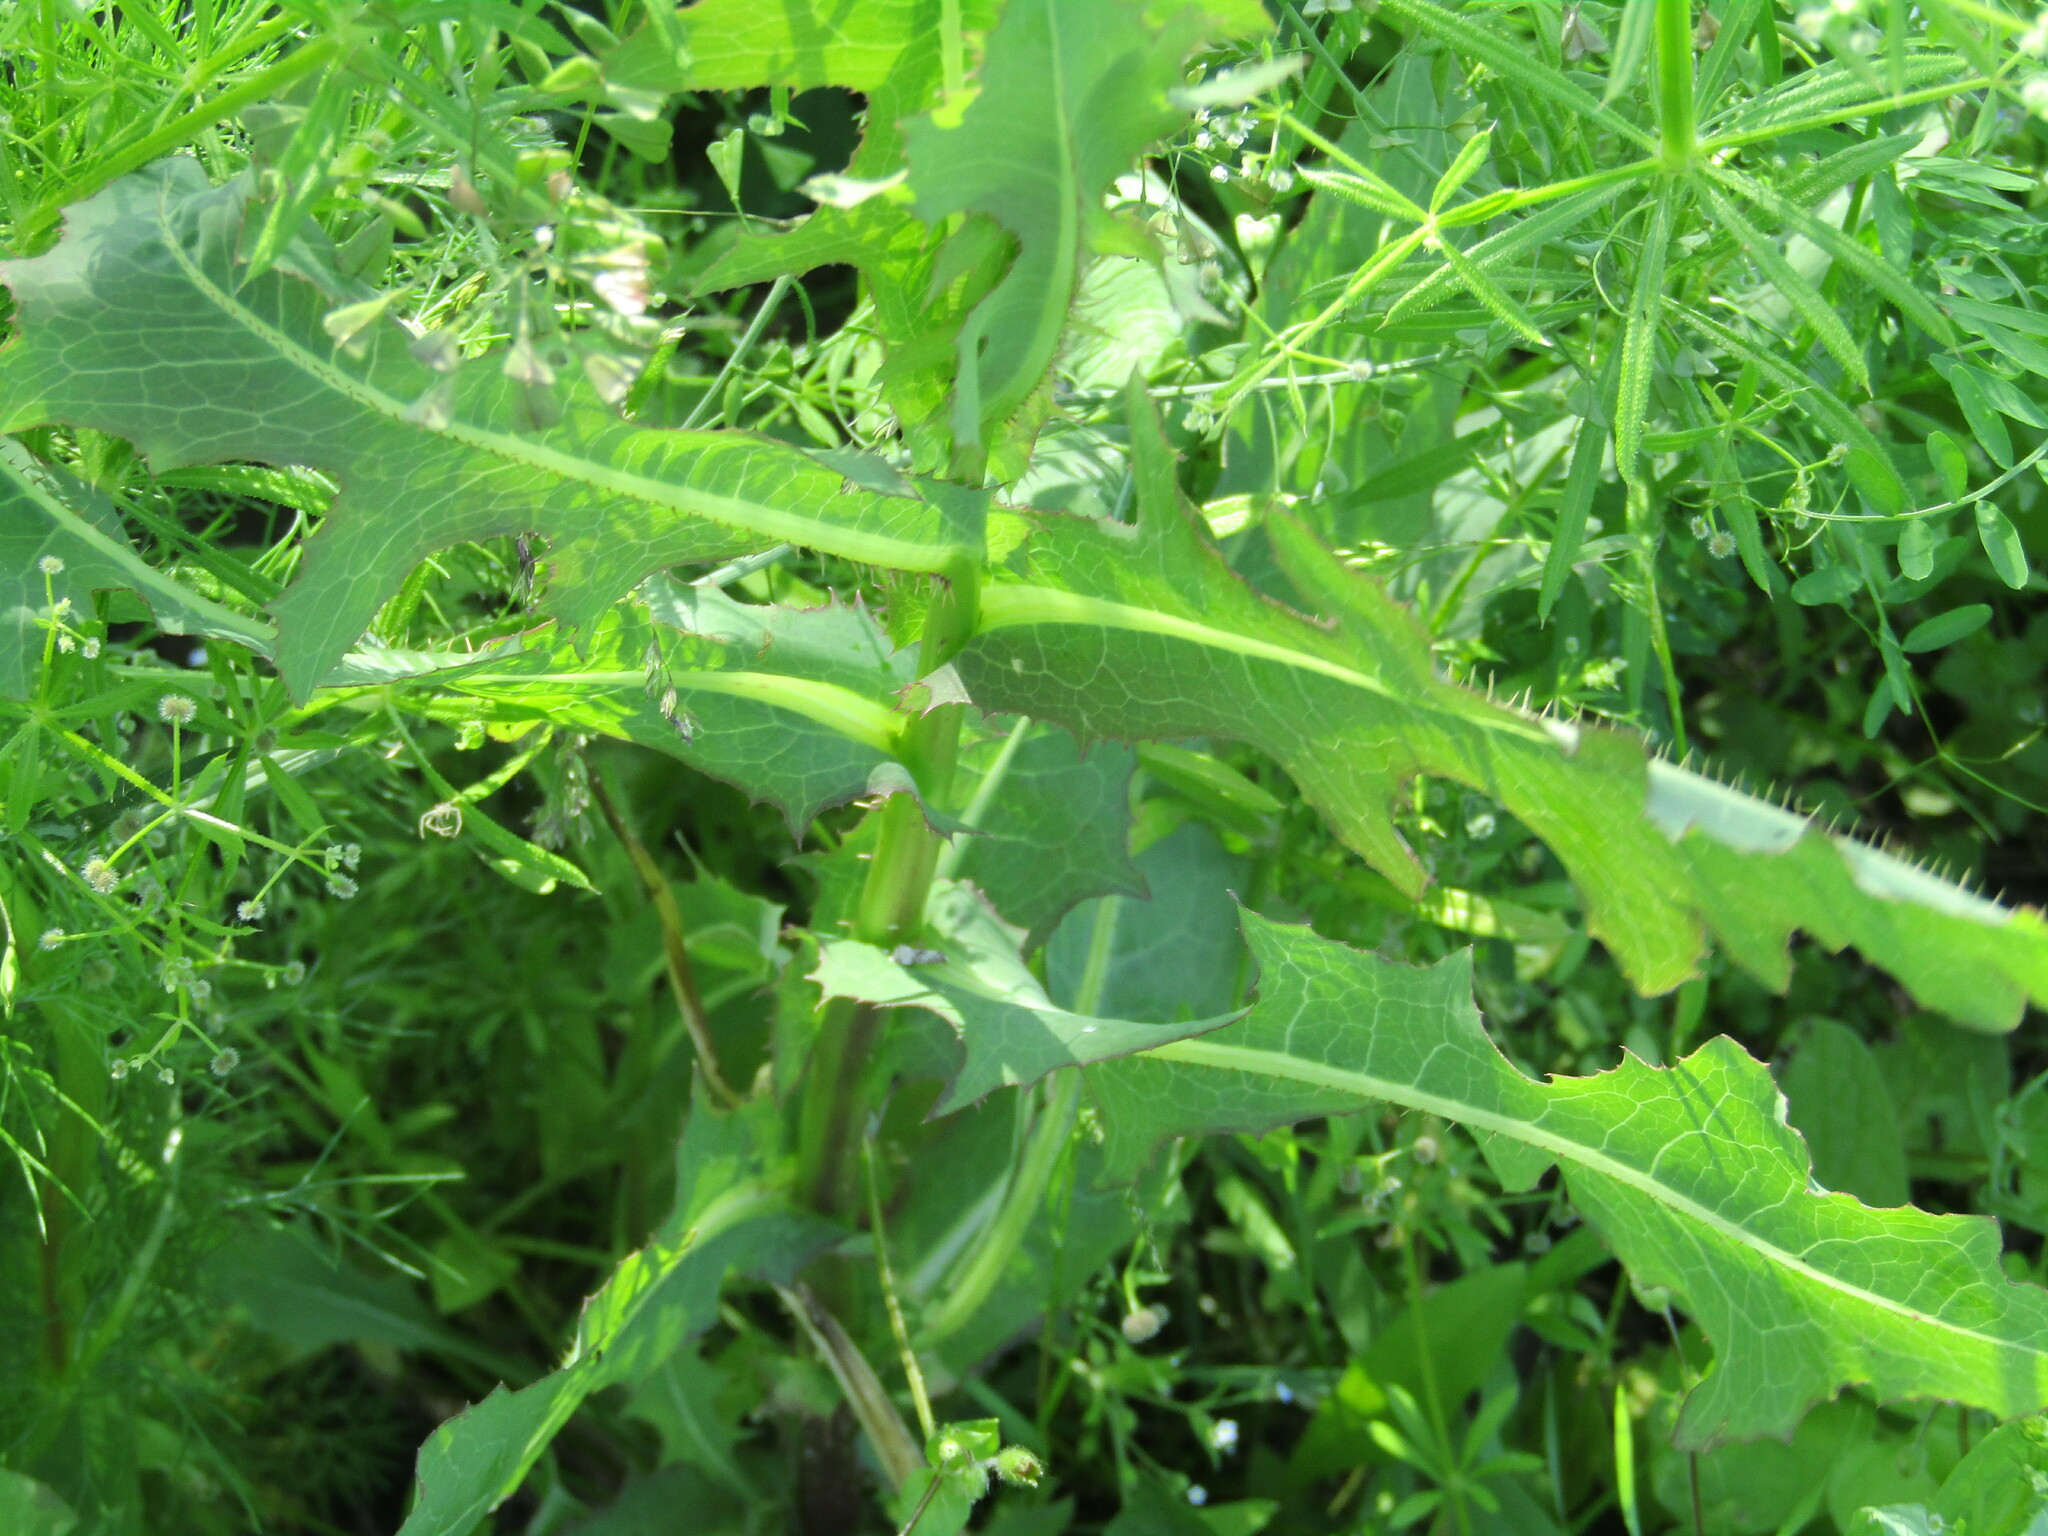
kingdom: Plantae
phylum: Tracheophyta
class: Magnoliopsida
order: Asterales
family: Asteraceae
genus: Lactuca
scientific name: Lactuca serriola
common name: Prickly lettuce
